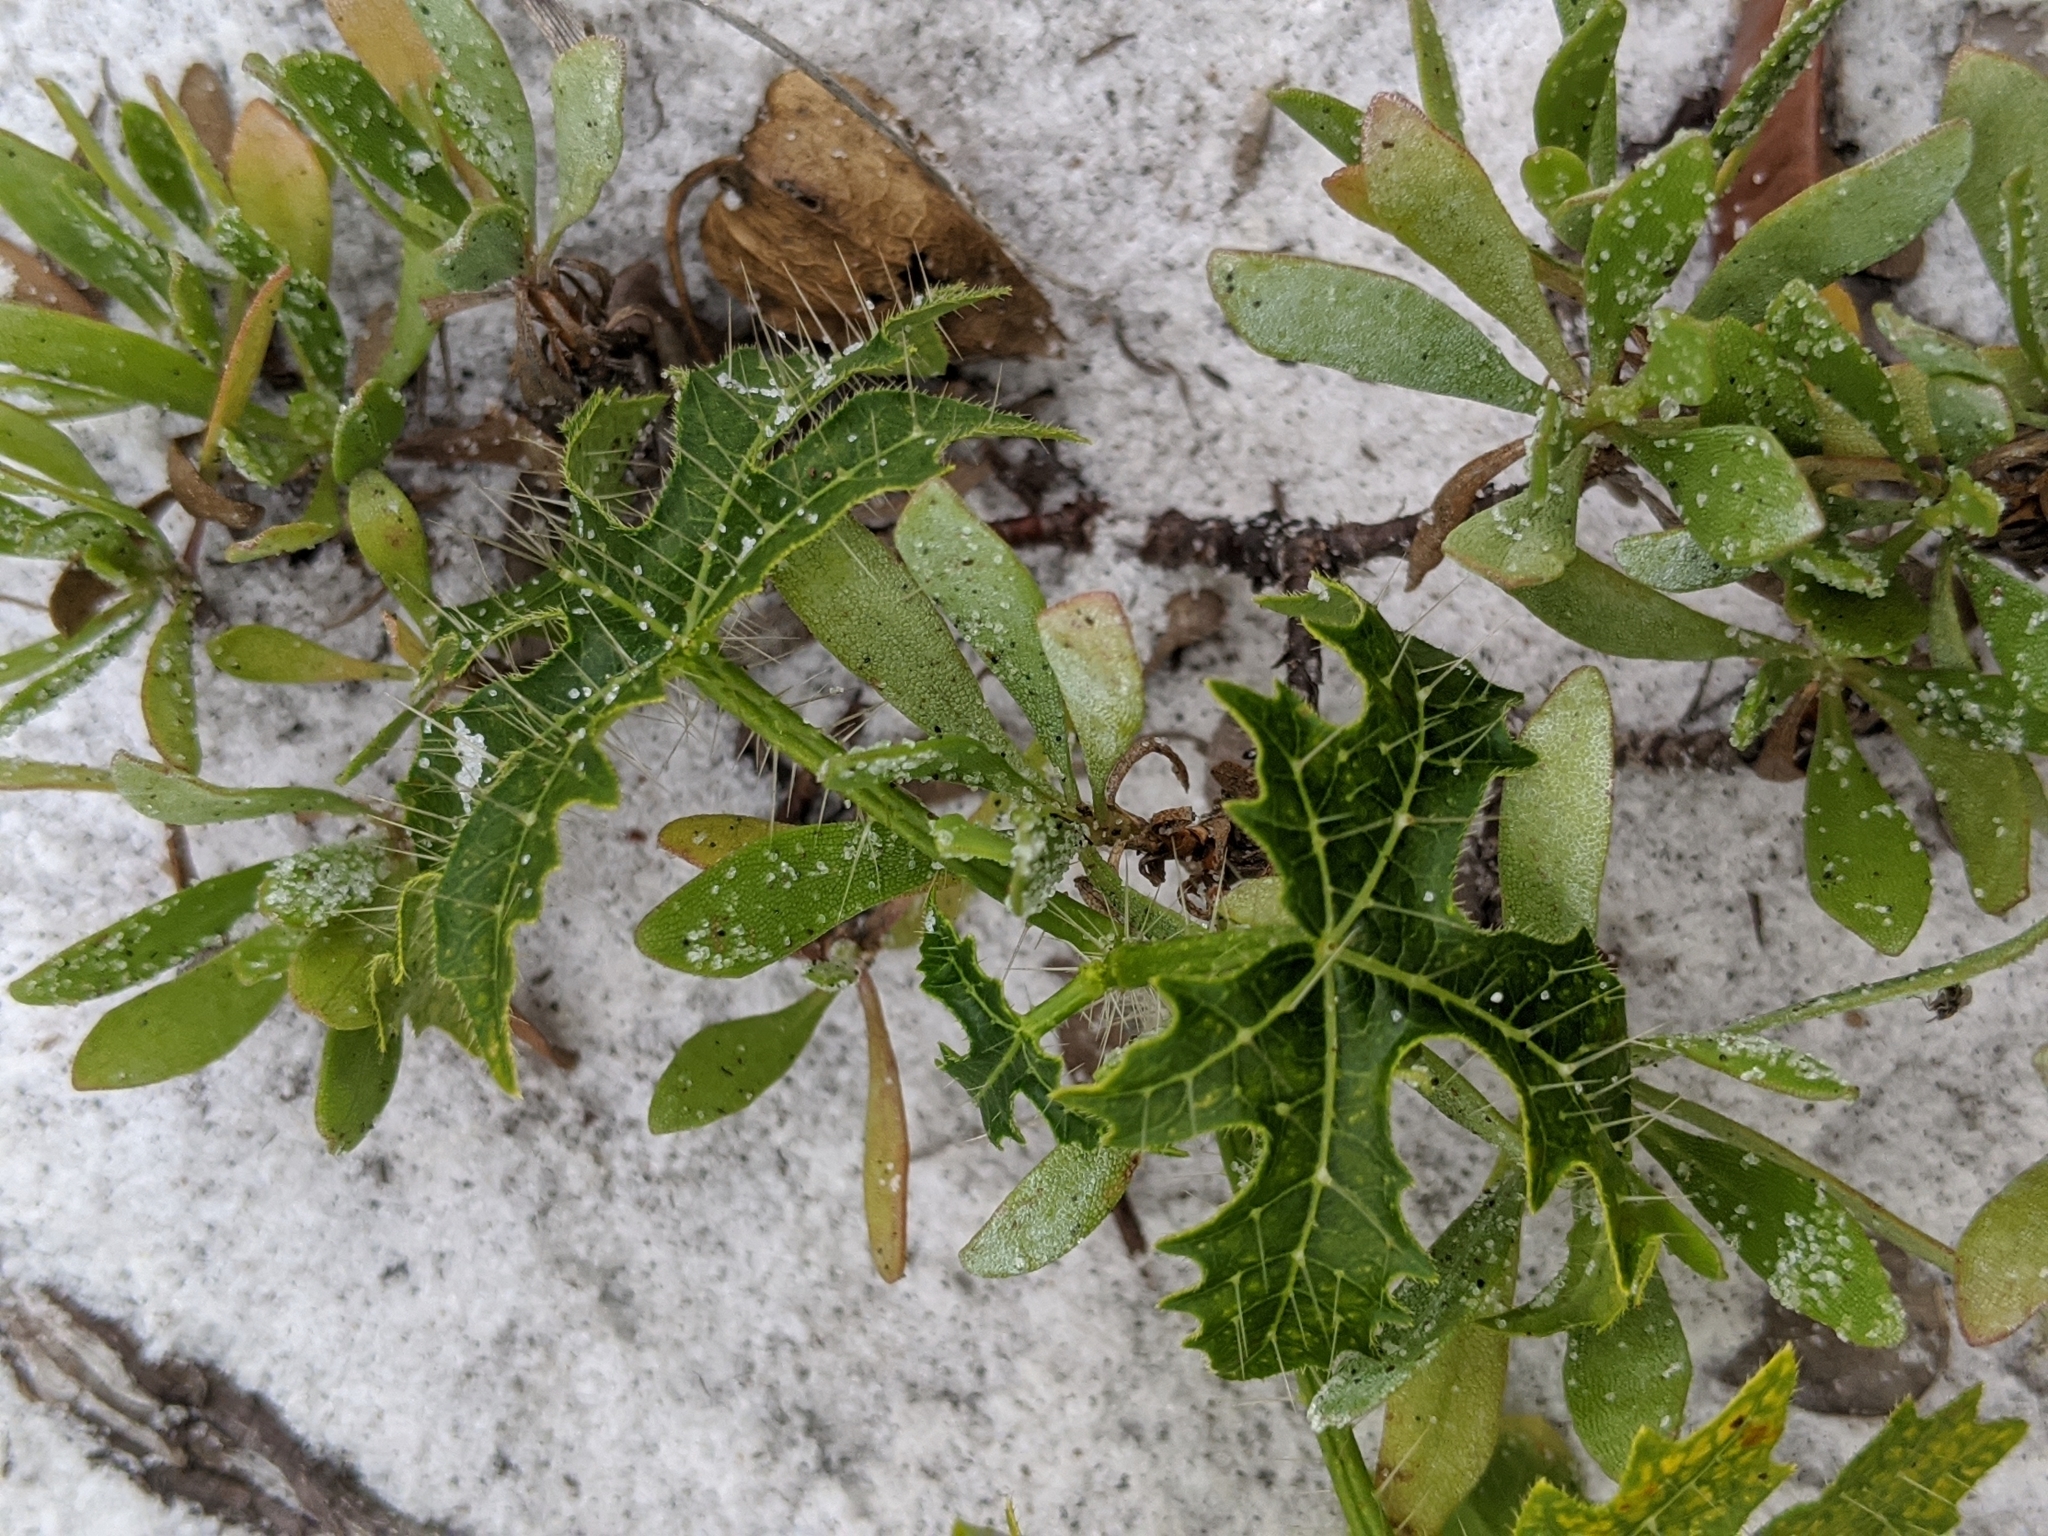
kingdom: Plantae
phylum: Tracheophyta
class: Magnoliopsida
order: Malpighiales
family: Euphorbiaceae
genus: Cnidoscolus
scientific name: Cnidoscolus stimulosus
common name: Bull-nettle
